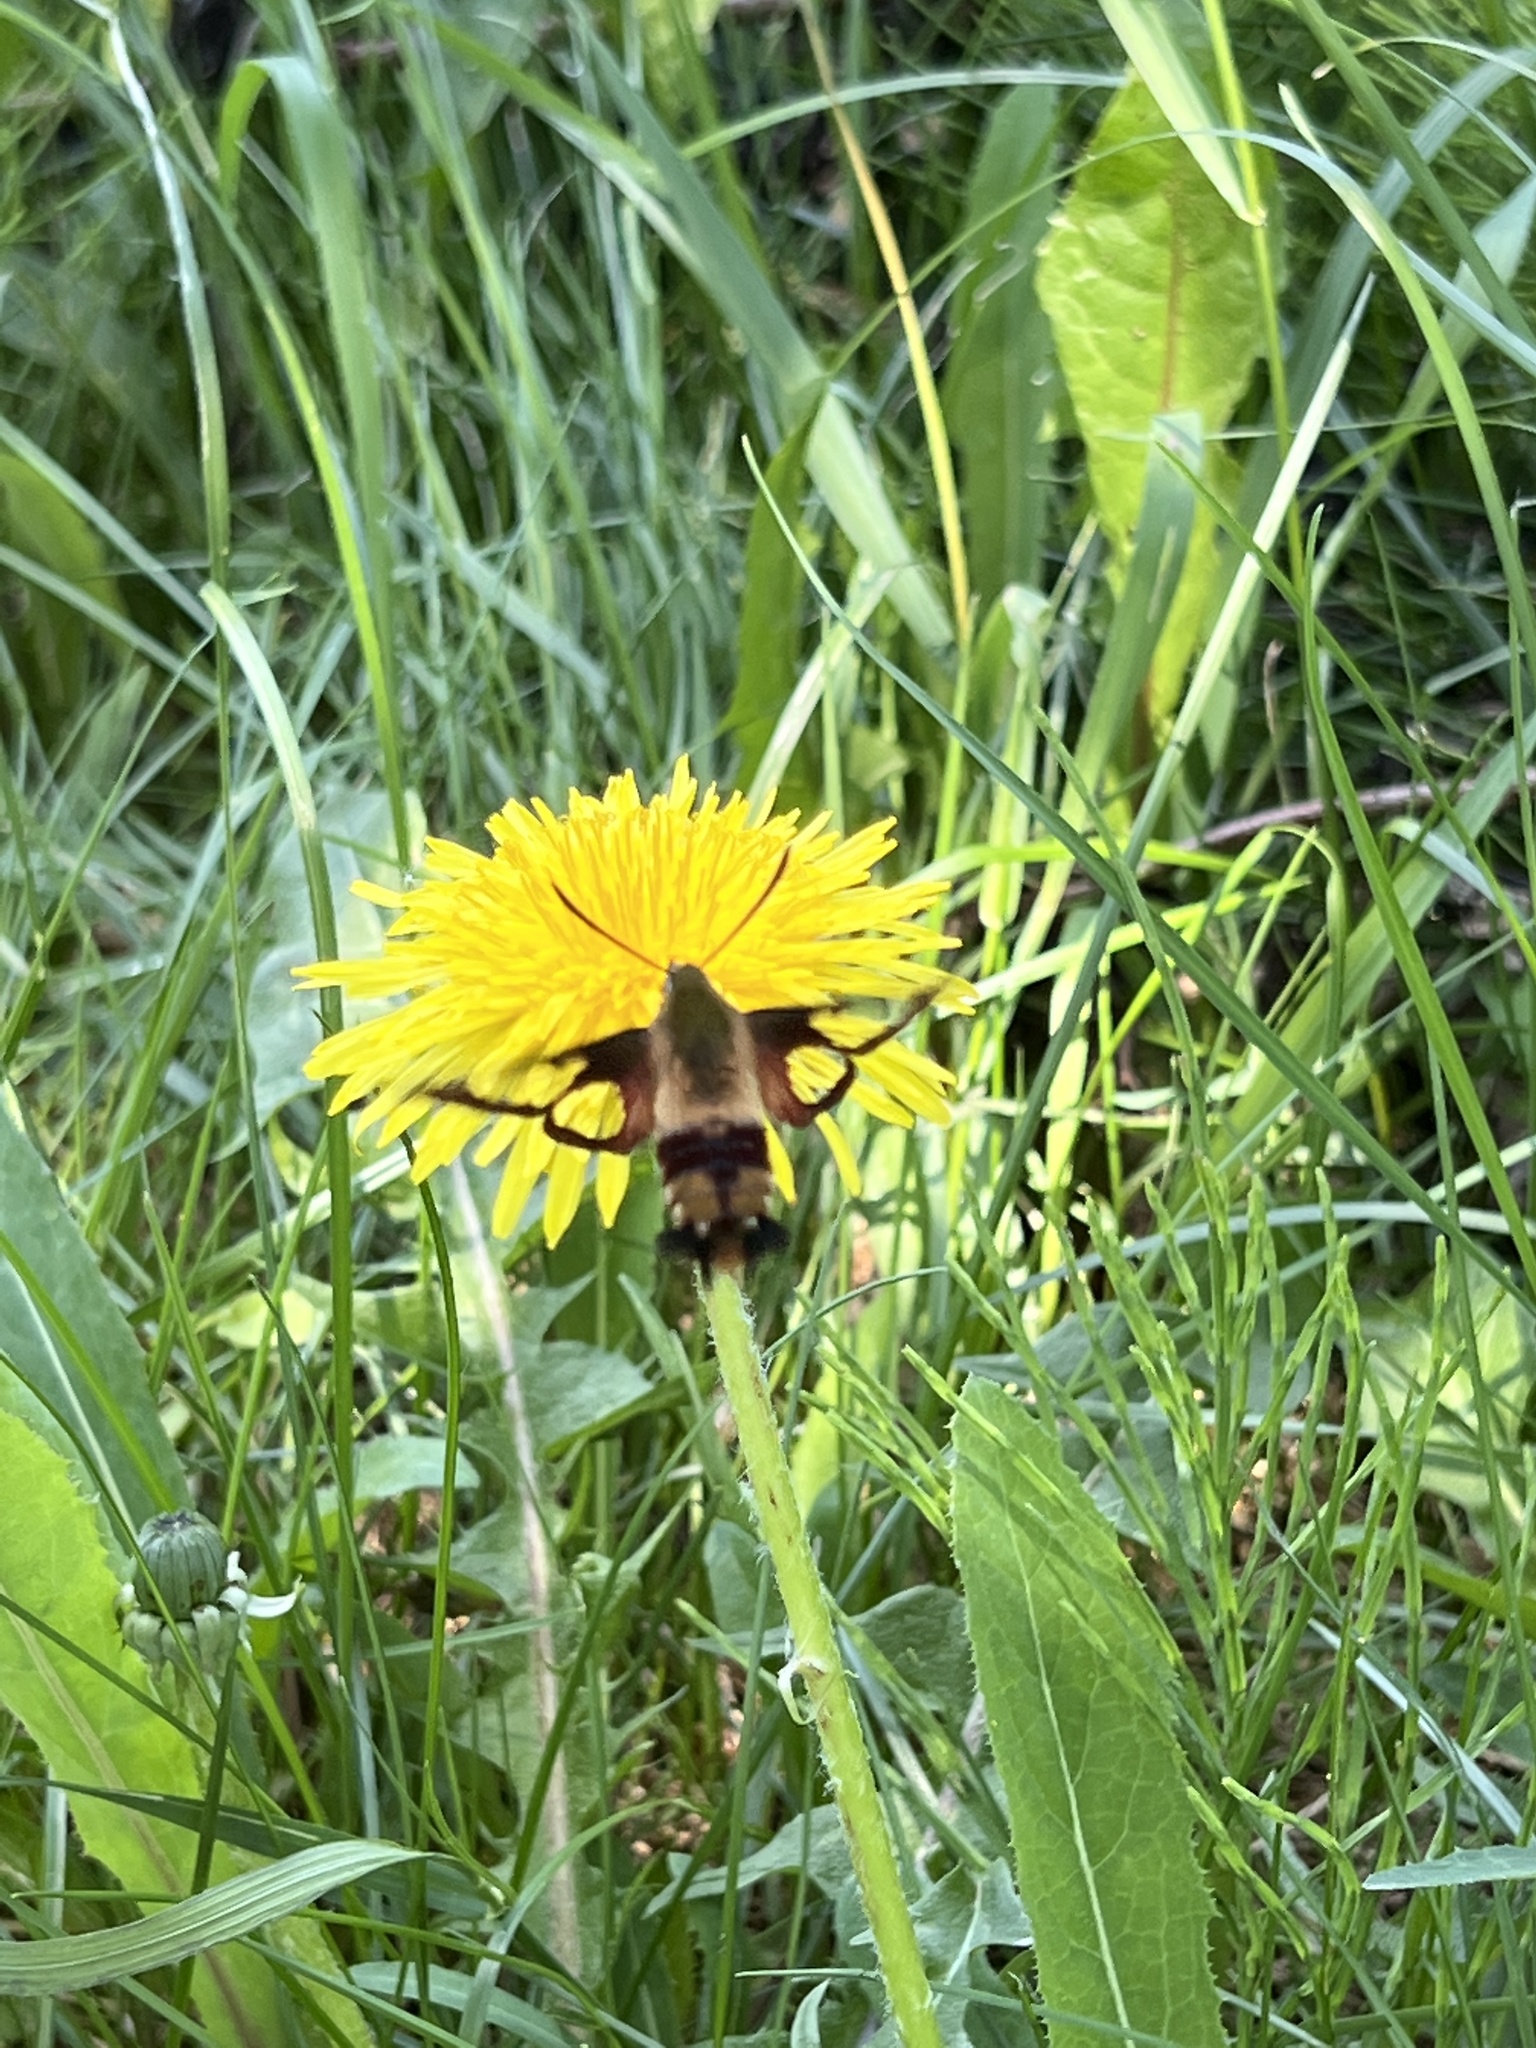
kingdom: Animalia
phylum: Arthropoda
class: Insecta
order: Lepidoptera
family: Sphingidae
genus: Hemaris
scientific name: Hemaris thysbe
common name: Common clear-wing
